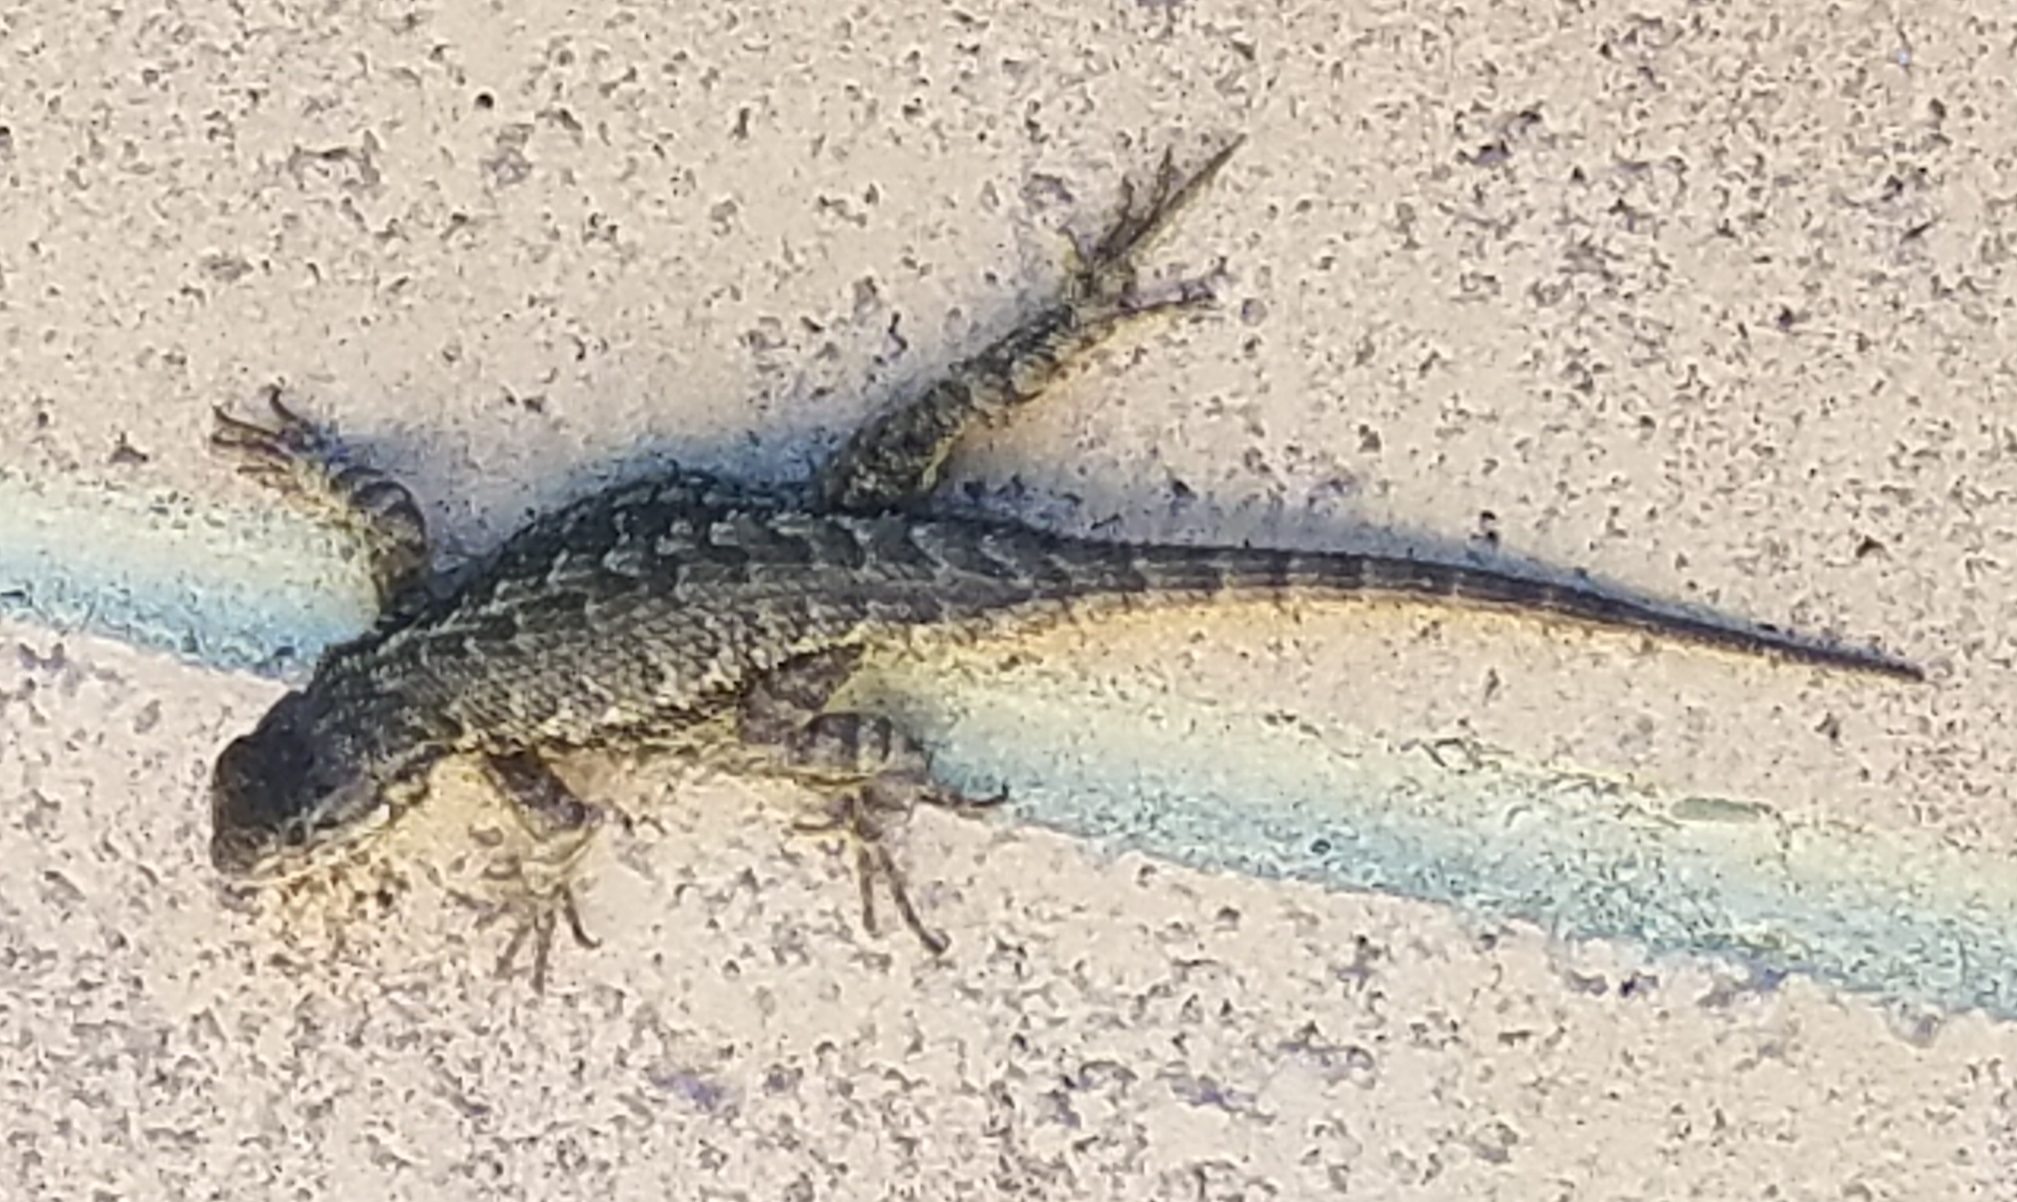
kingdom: Animalia
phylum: Chordata
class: Squamata
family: Phrynosomatidae
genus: Sceloporus
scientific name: Sceloporus occidentalis
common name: Western fence lizard
